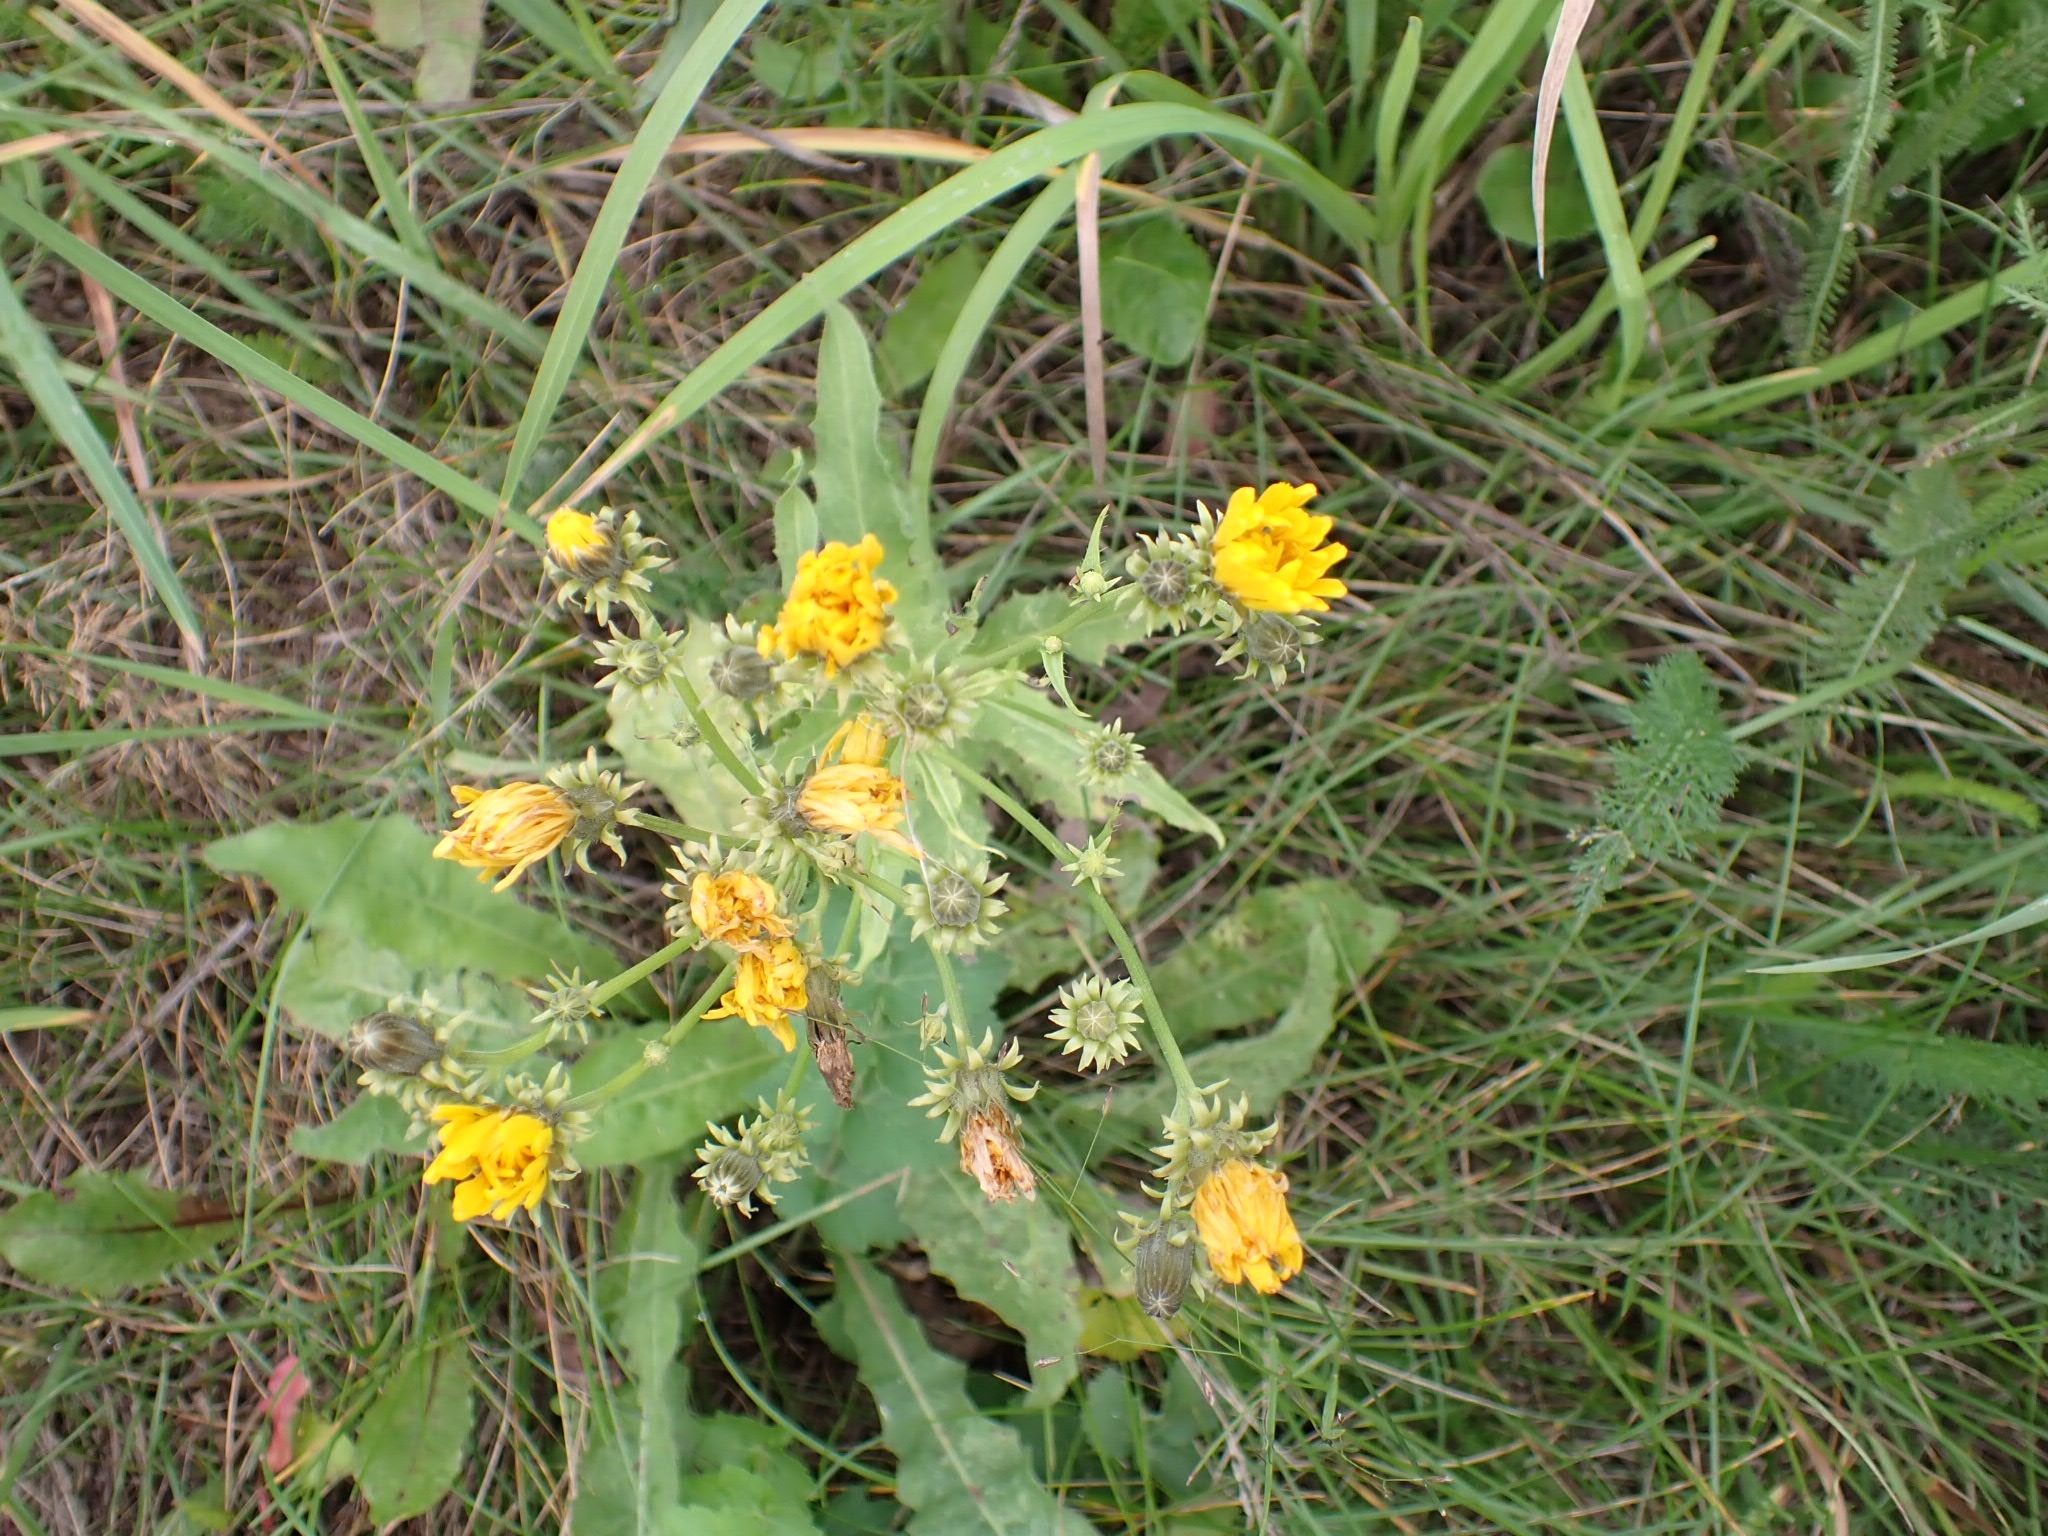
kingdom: Plantae
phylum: Tracheophyta
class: Magnoliopsida
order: Asterales
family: Asteraceae
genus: Picris
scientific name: Picris hieracioides
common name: Hawkweed oxtongue
